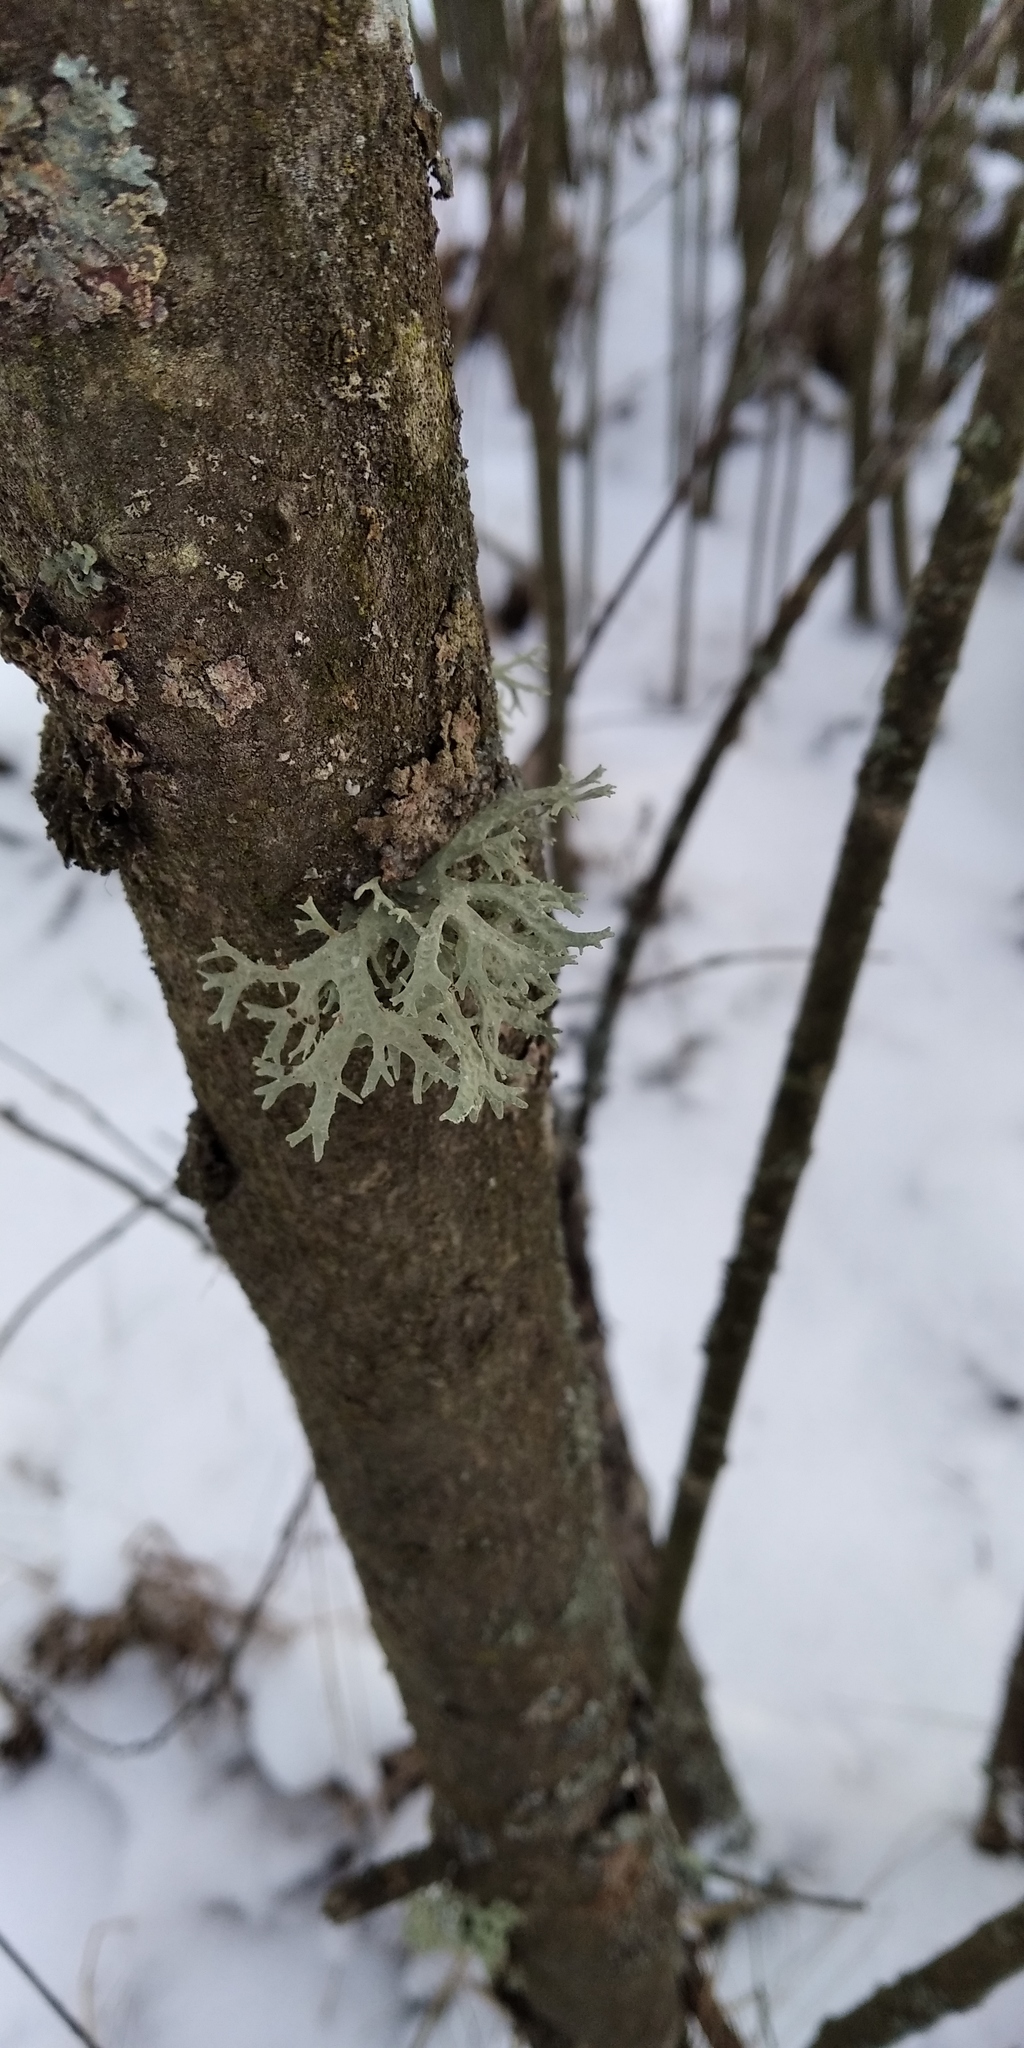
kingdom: Fungi
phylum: Ascomycota
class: Lecanoromycetes
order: Lecanorales
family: Parmeliaceae
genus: Evernia
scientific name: Evernia prunastri
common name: Oak moss
